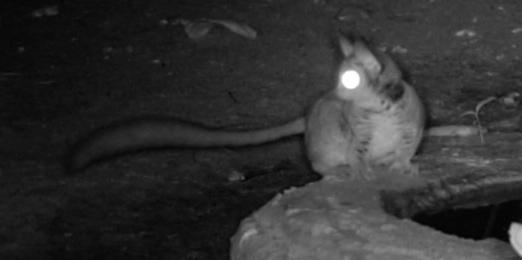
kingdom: Animalia
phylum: Chordata
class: Mammalia
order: Primates
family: Galagidae
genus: Galago
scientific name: Galago moholi
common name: Moholi bushbaby
